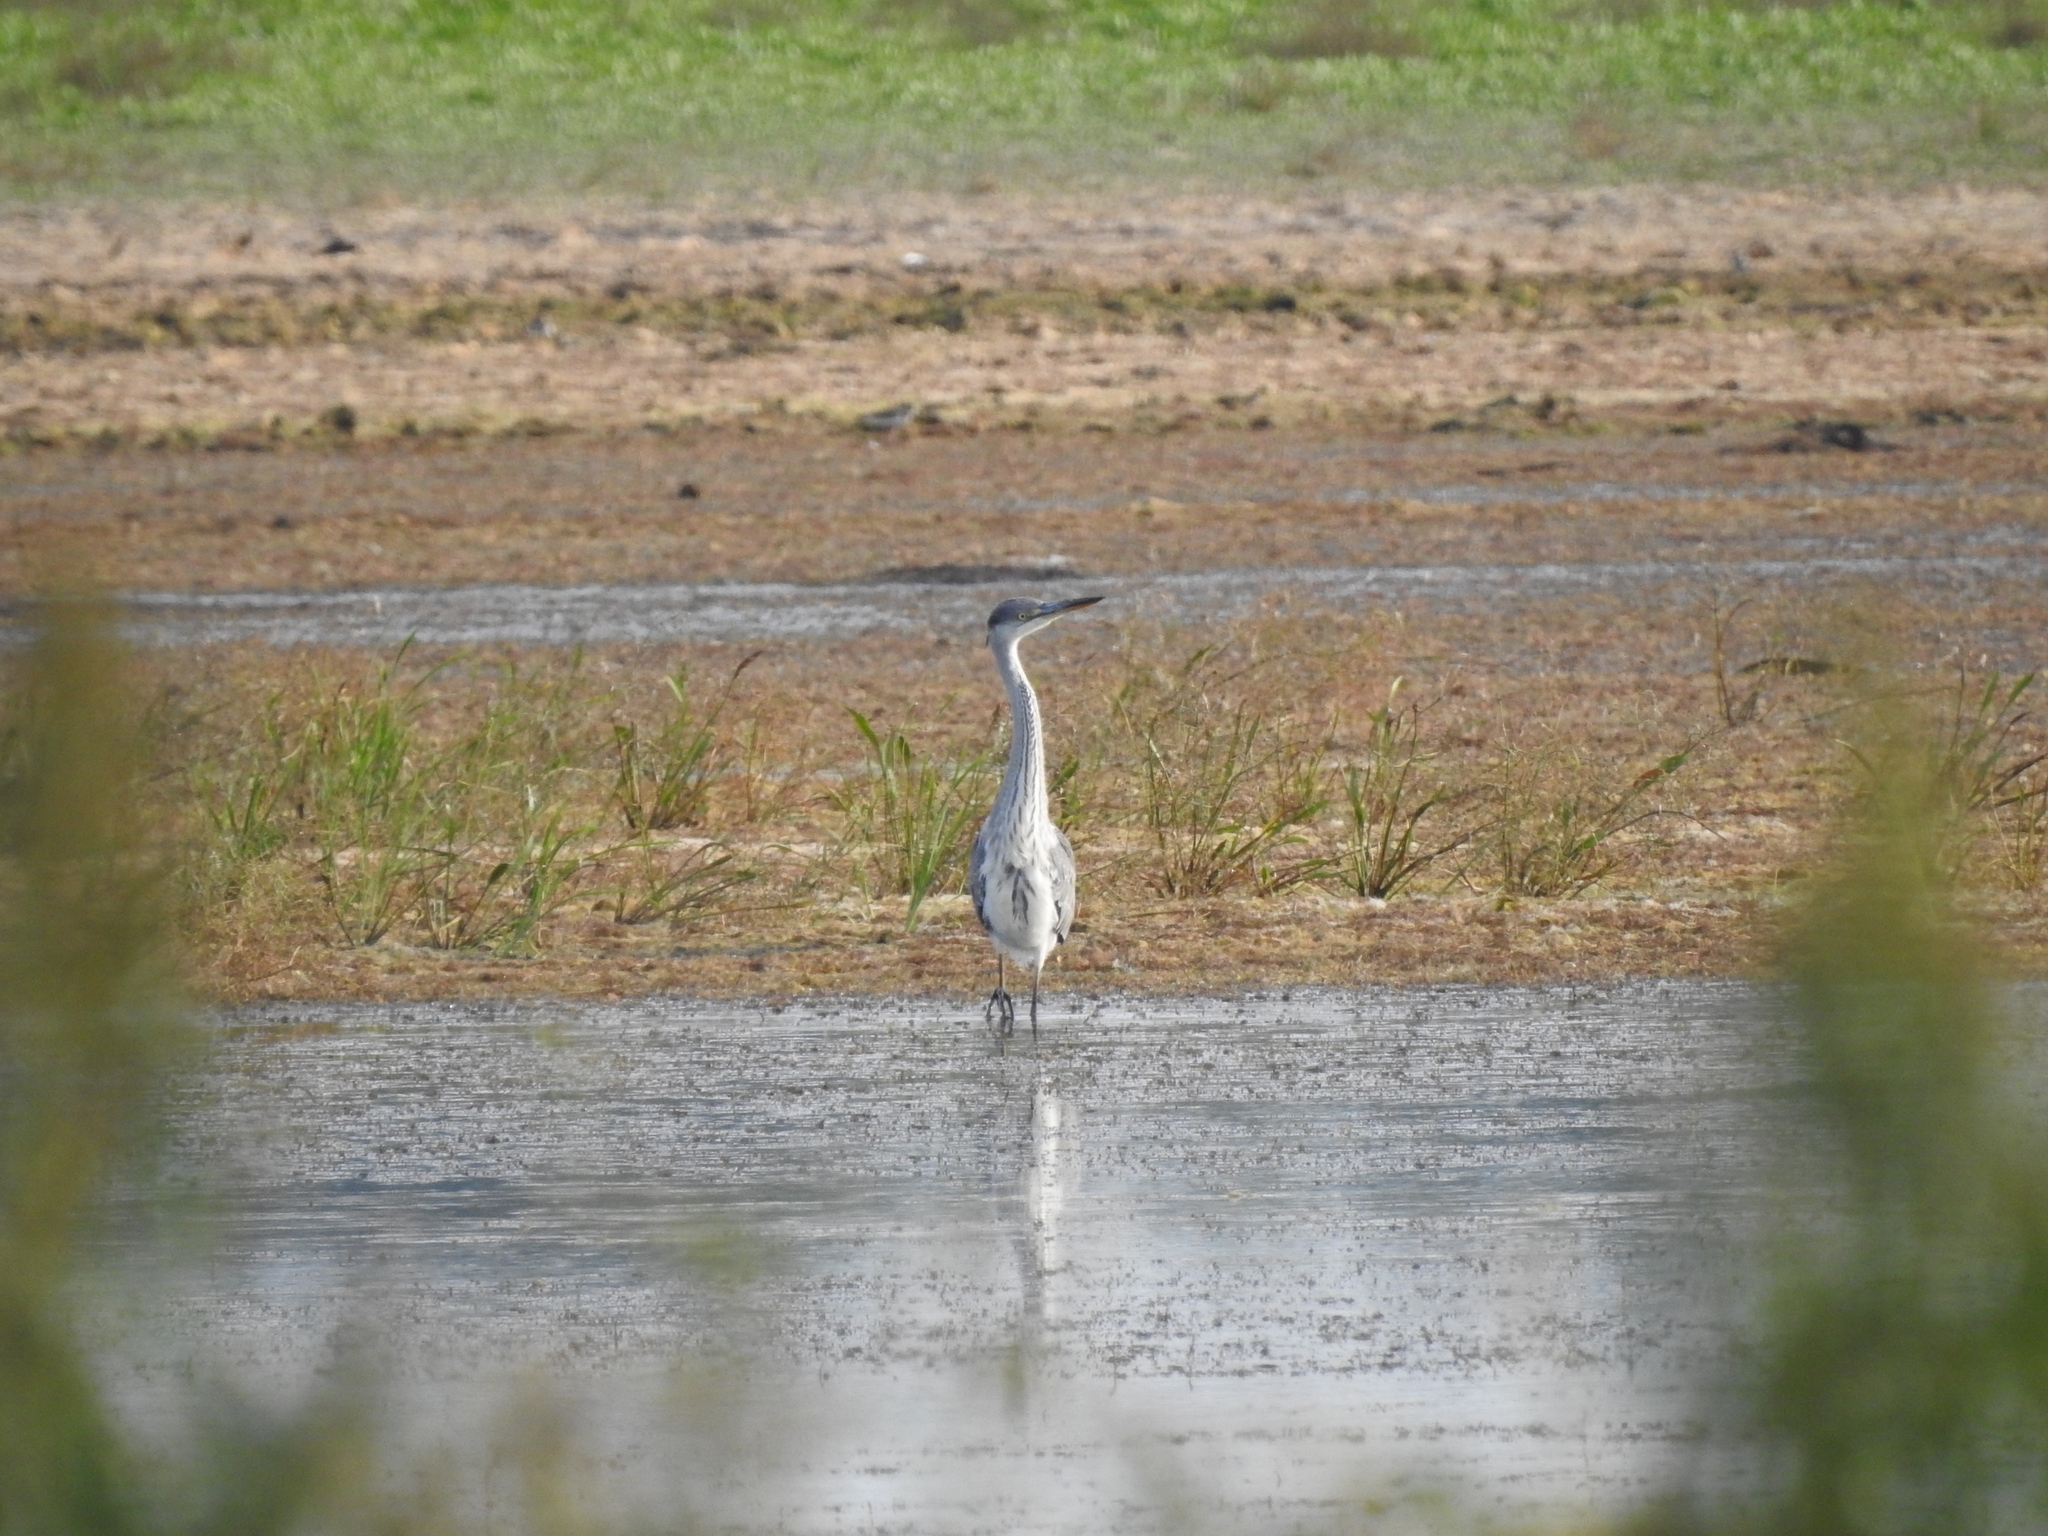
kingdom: Animalia
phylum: Chordata
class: Aves
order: Pelecaniformes
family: Ardeidae
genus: Ardea
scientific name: Ardea cinerea
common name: Grey heron
